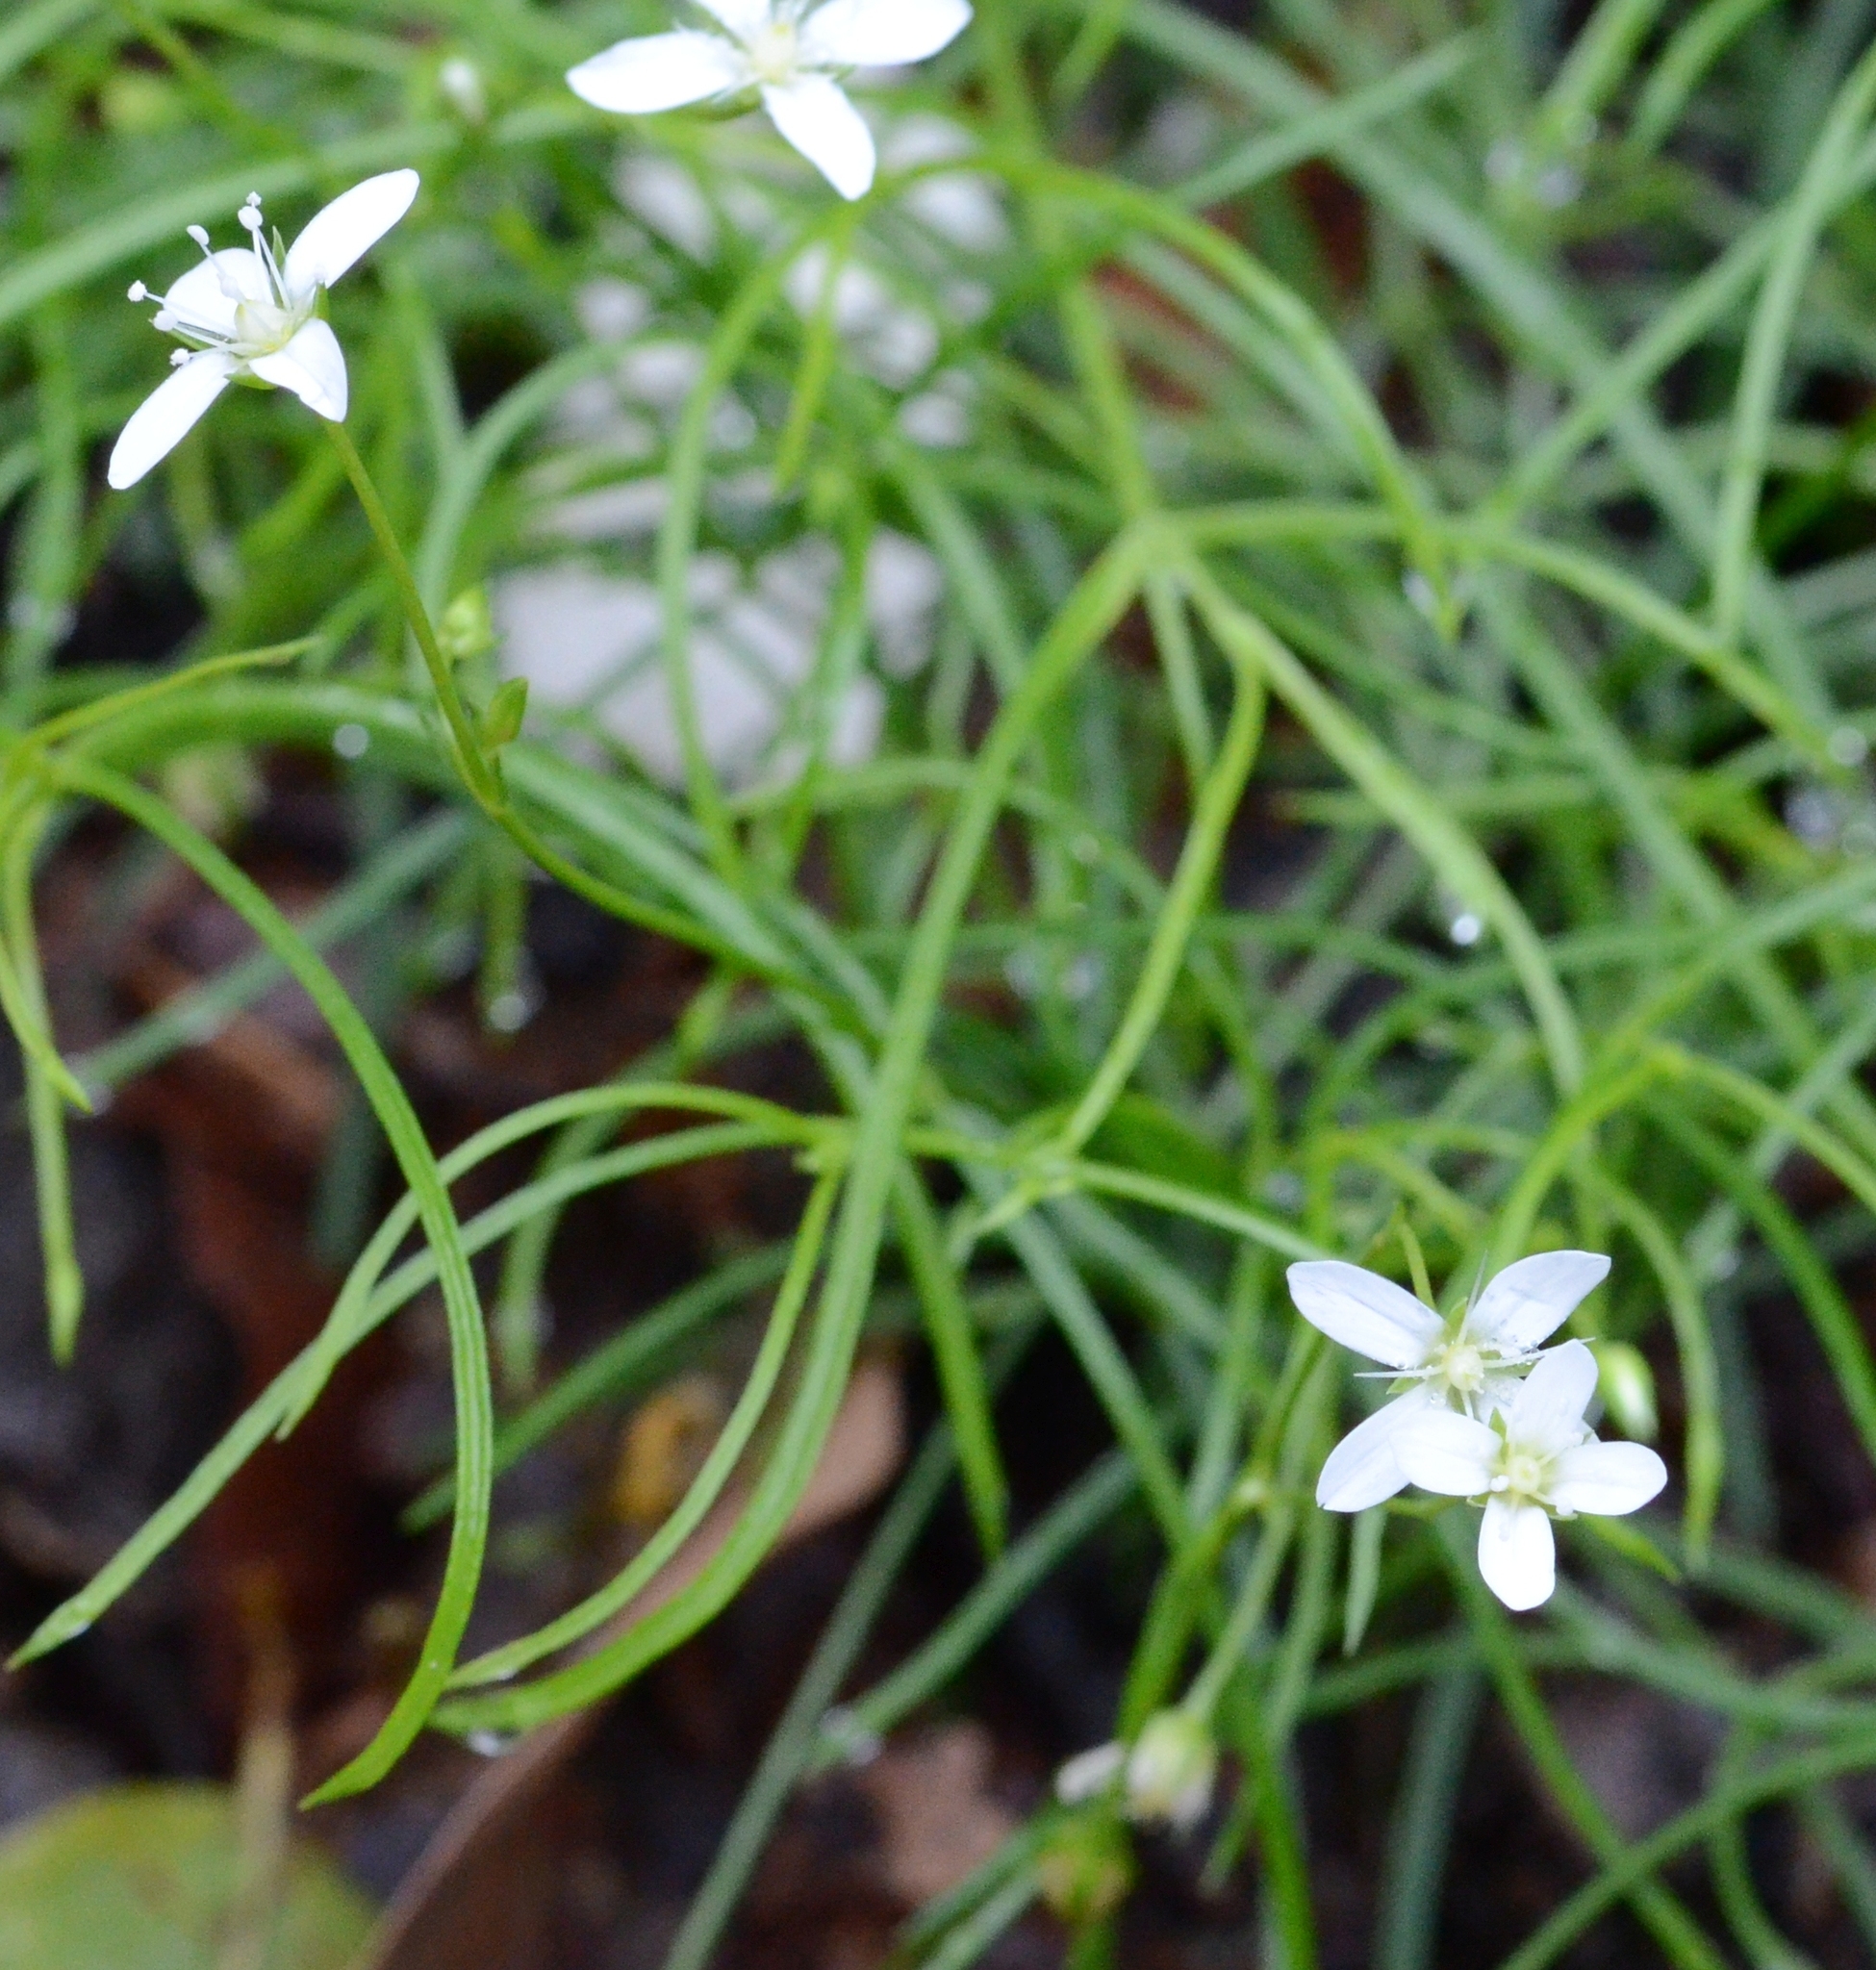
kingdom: Plantae
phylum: Tracheophyta
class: Magnoliopsida
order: Caryophyllales
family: Caryophyllaceae
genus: Moehringia
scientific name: Moehringia muscosa
